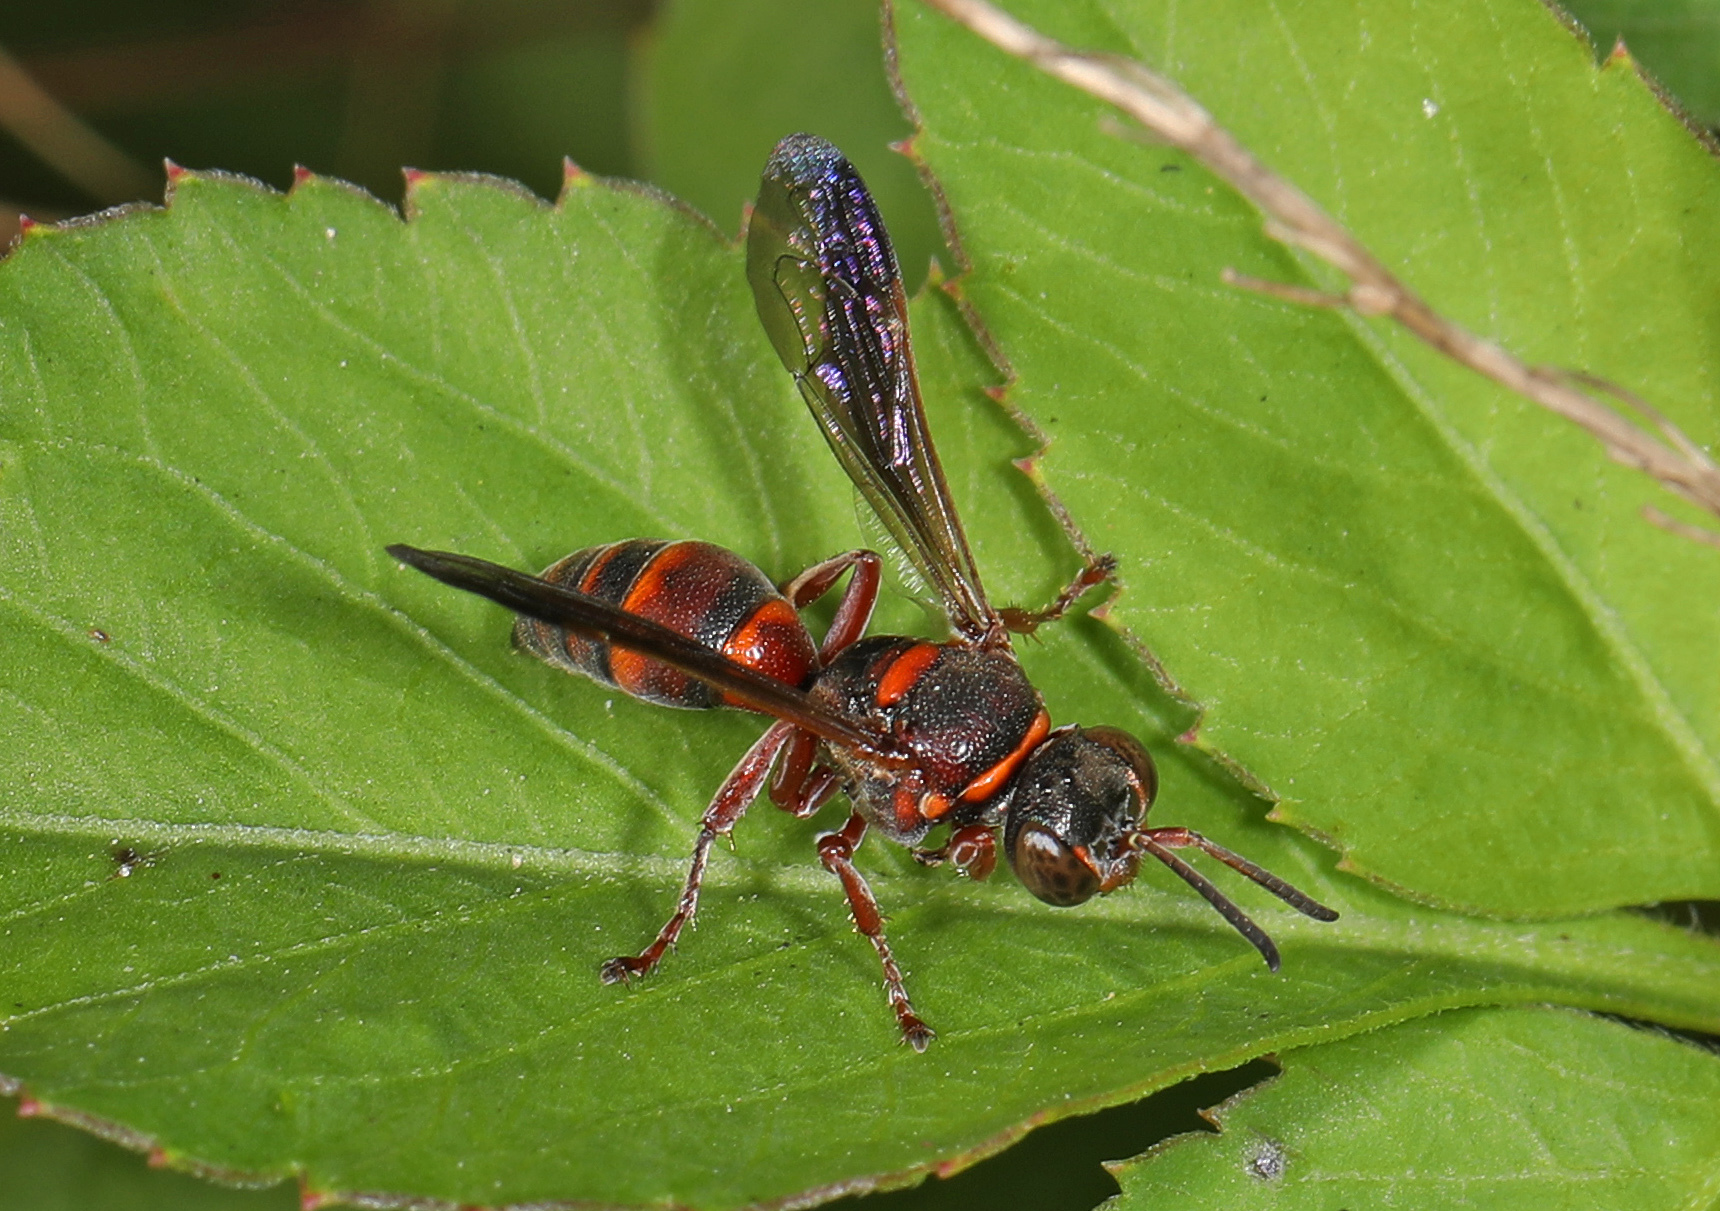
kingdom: Animalia
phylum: Arthropoda
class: Insecta
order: Hymenoptera
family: Crabronidae
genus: Hoplisoides
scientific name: Hoplisoides
